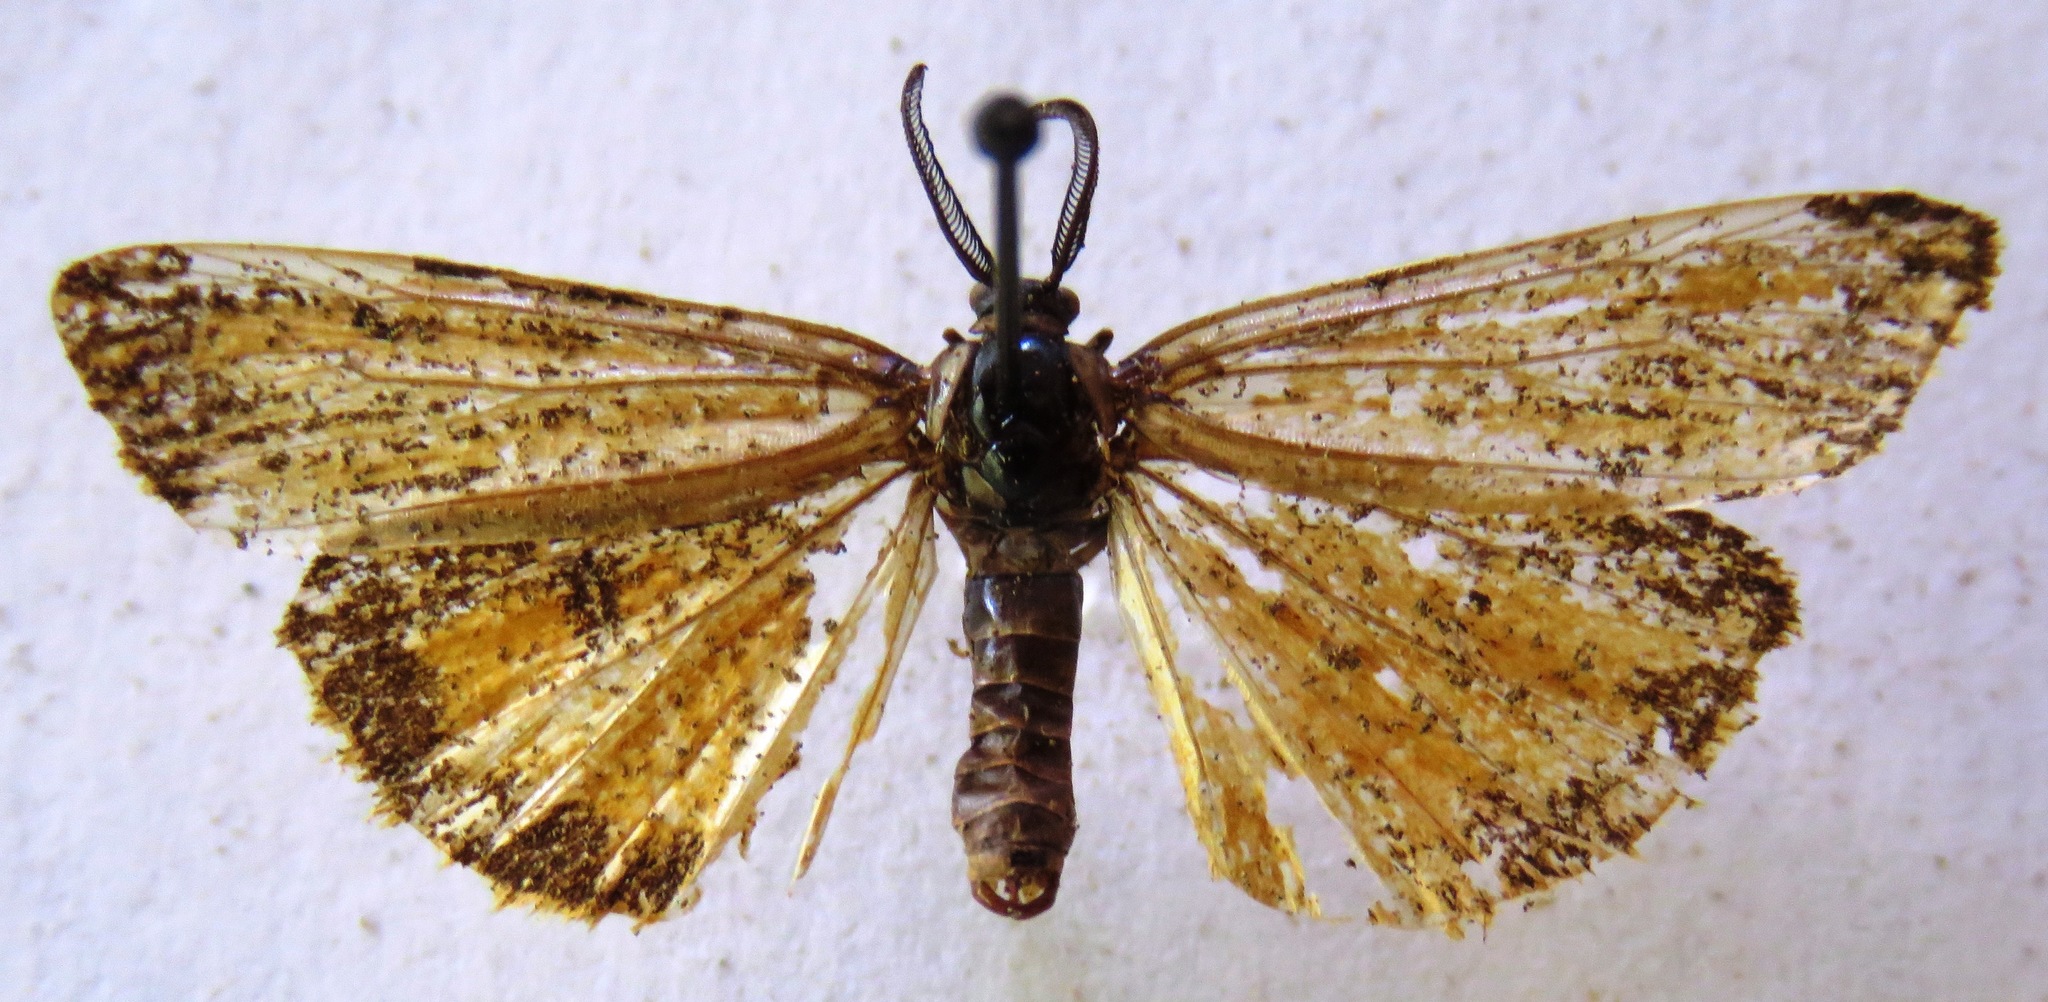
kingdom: Animalia
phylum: Arthropoda
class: Insecta
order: Lepidoptera
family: Erebidae
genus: Coscinia
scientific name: Coscinia Spiris striata
